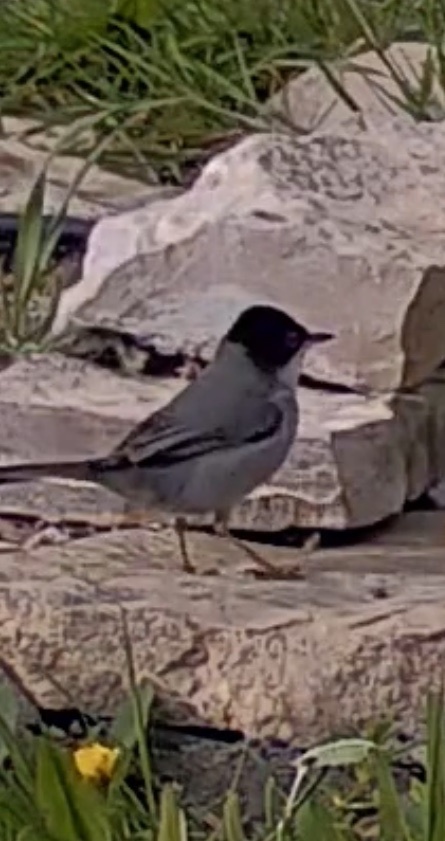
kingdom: Animalia
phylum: Chordata
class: Aves
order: Passeriformes
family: Sylviidae
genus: Curruca
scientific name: Curruca melanocephala
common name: Sardinian warbler
